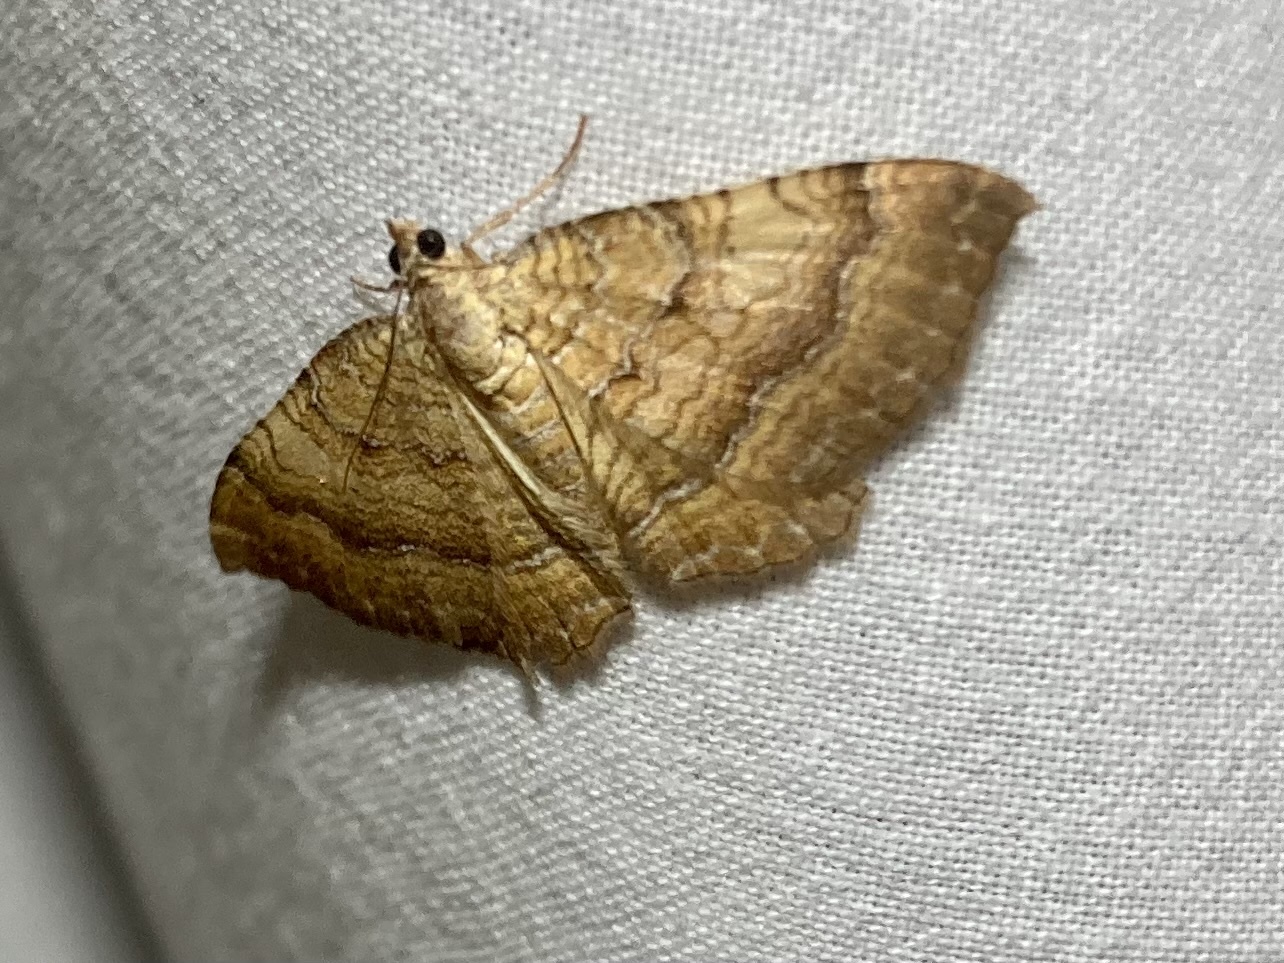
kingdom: Animalia
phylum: Arthropoda
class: Insecta
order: Lepidoptera
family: Geometridae
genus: Camptogramma
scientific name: Camptogramma bilineata
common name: Yellow shell
